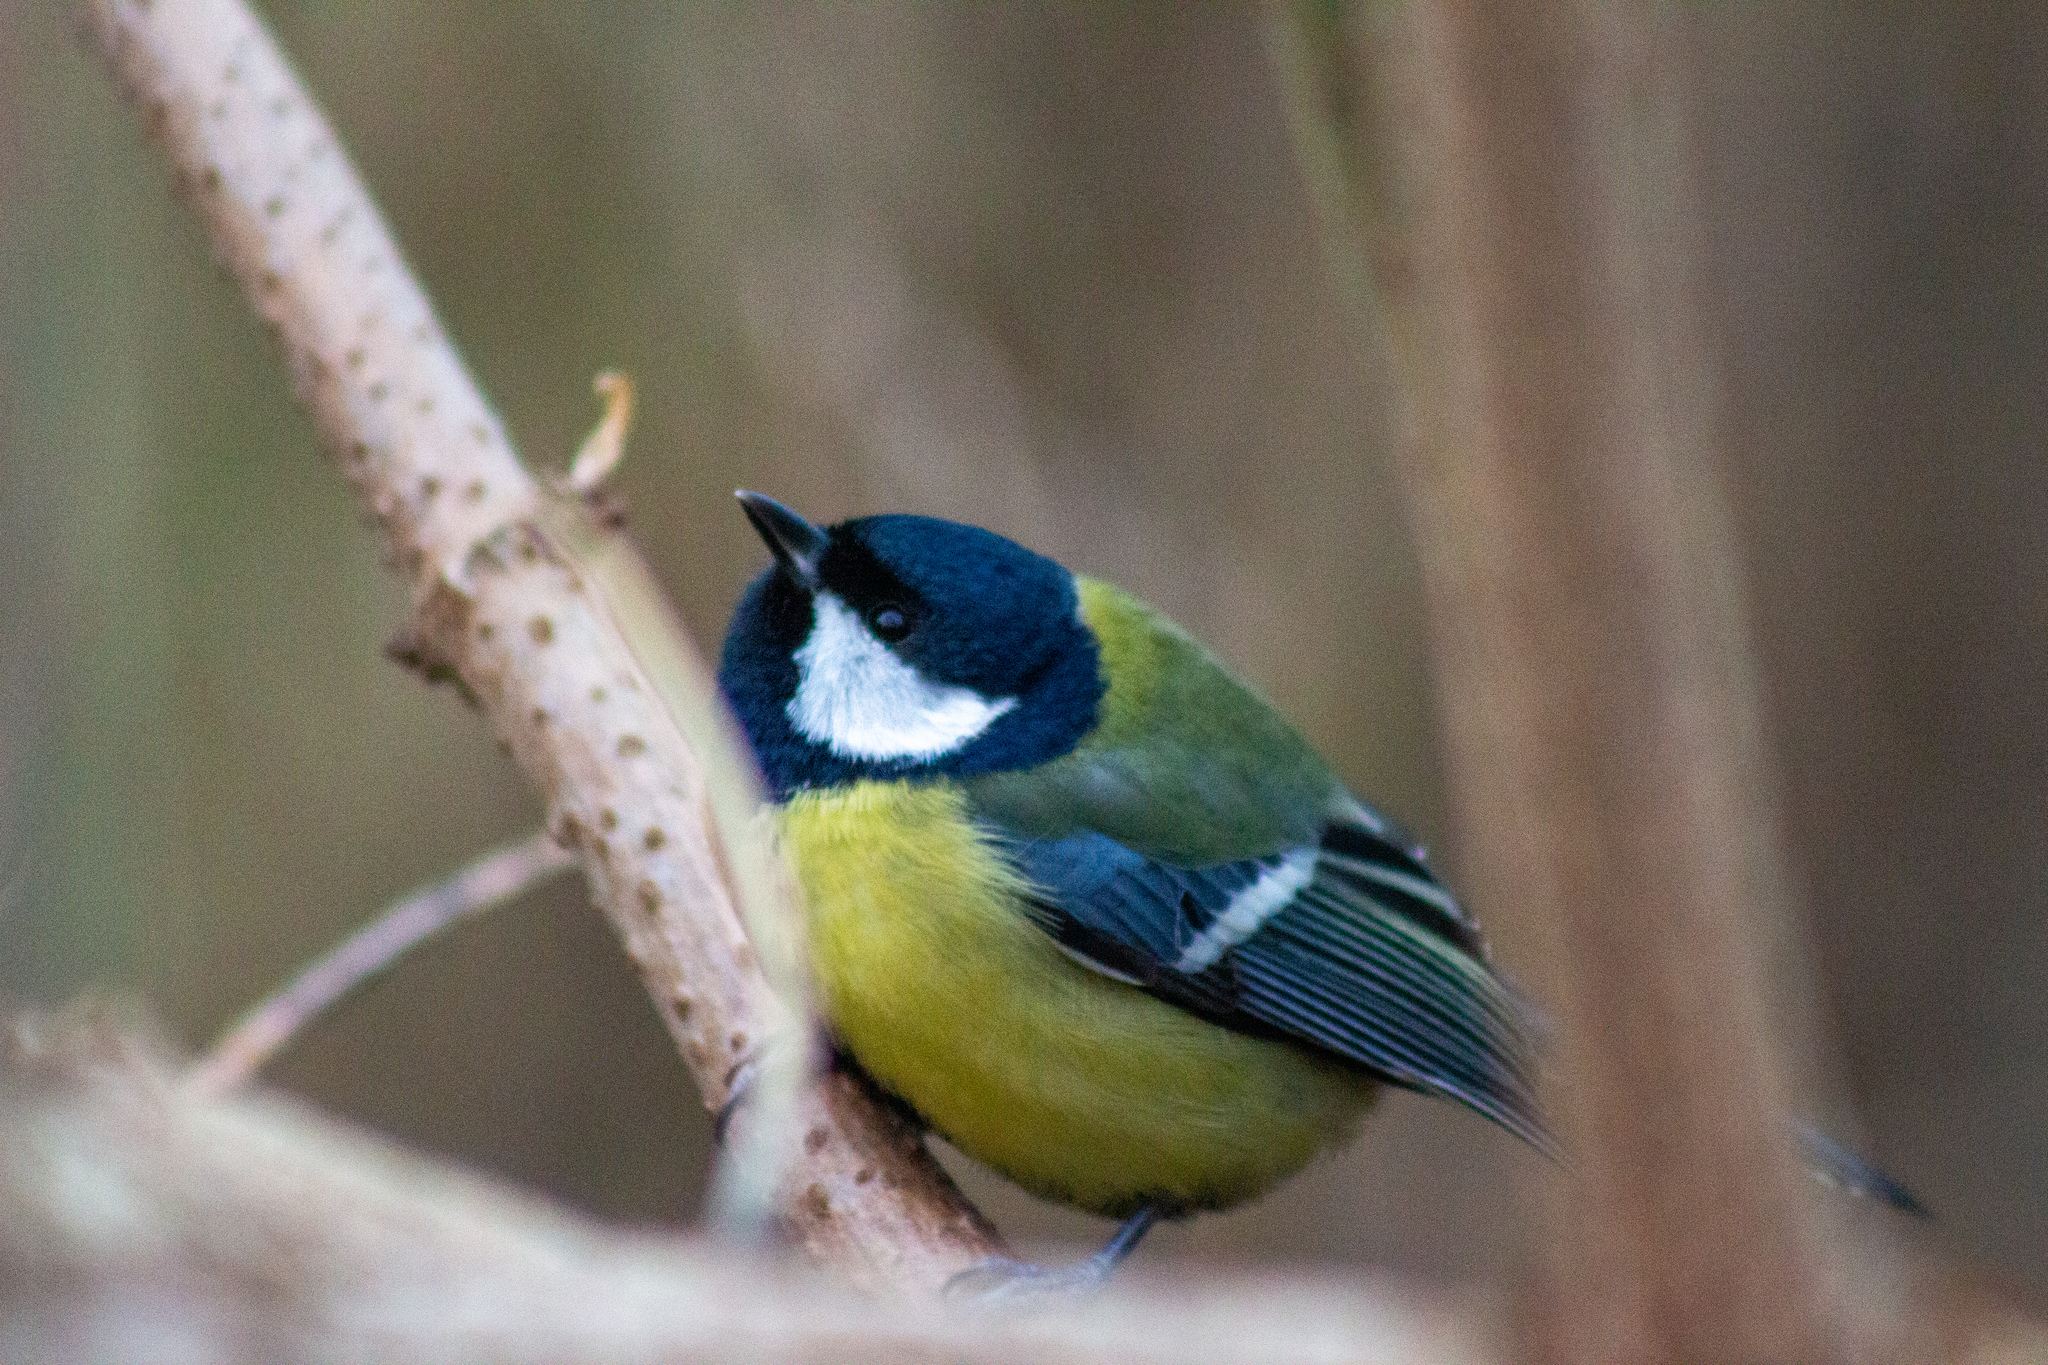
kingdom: Animalia
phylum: Chordata
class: Aves
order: Passeriformes
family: Paridae
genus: Parus
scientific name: Parus major
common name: Great tit
